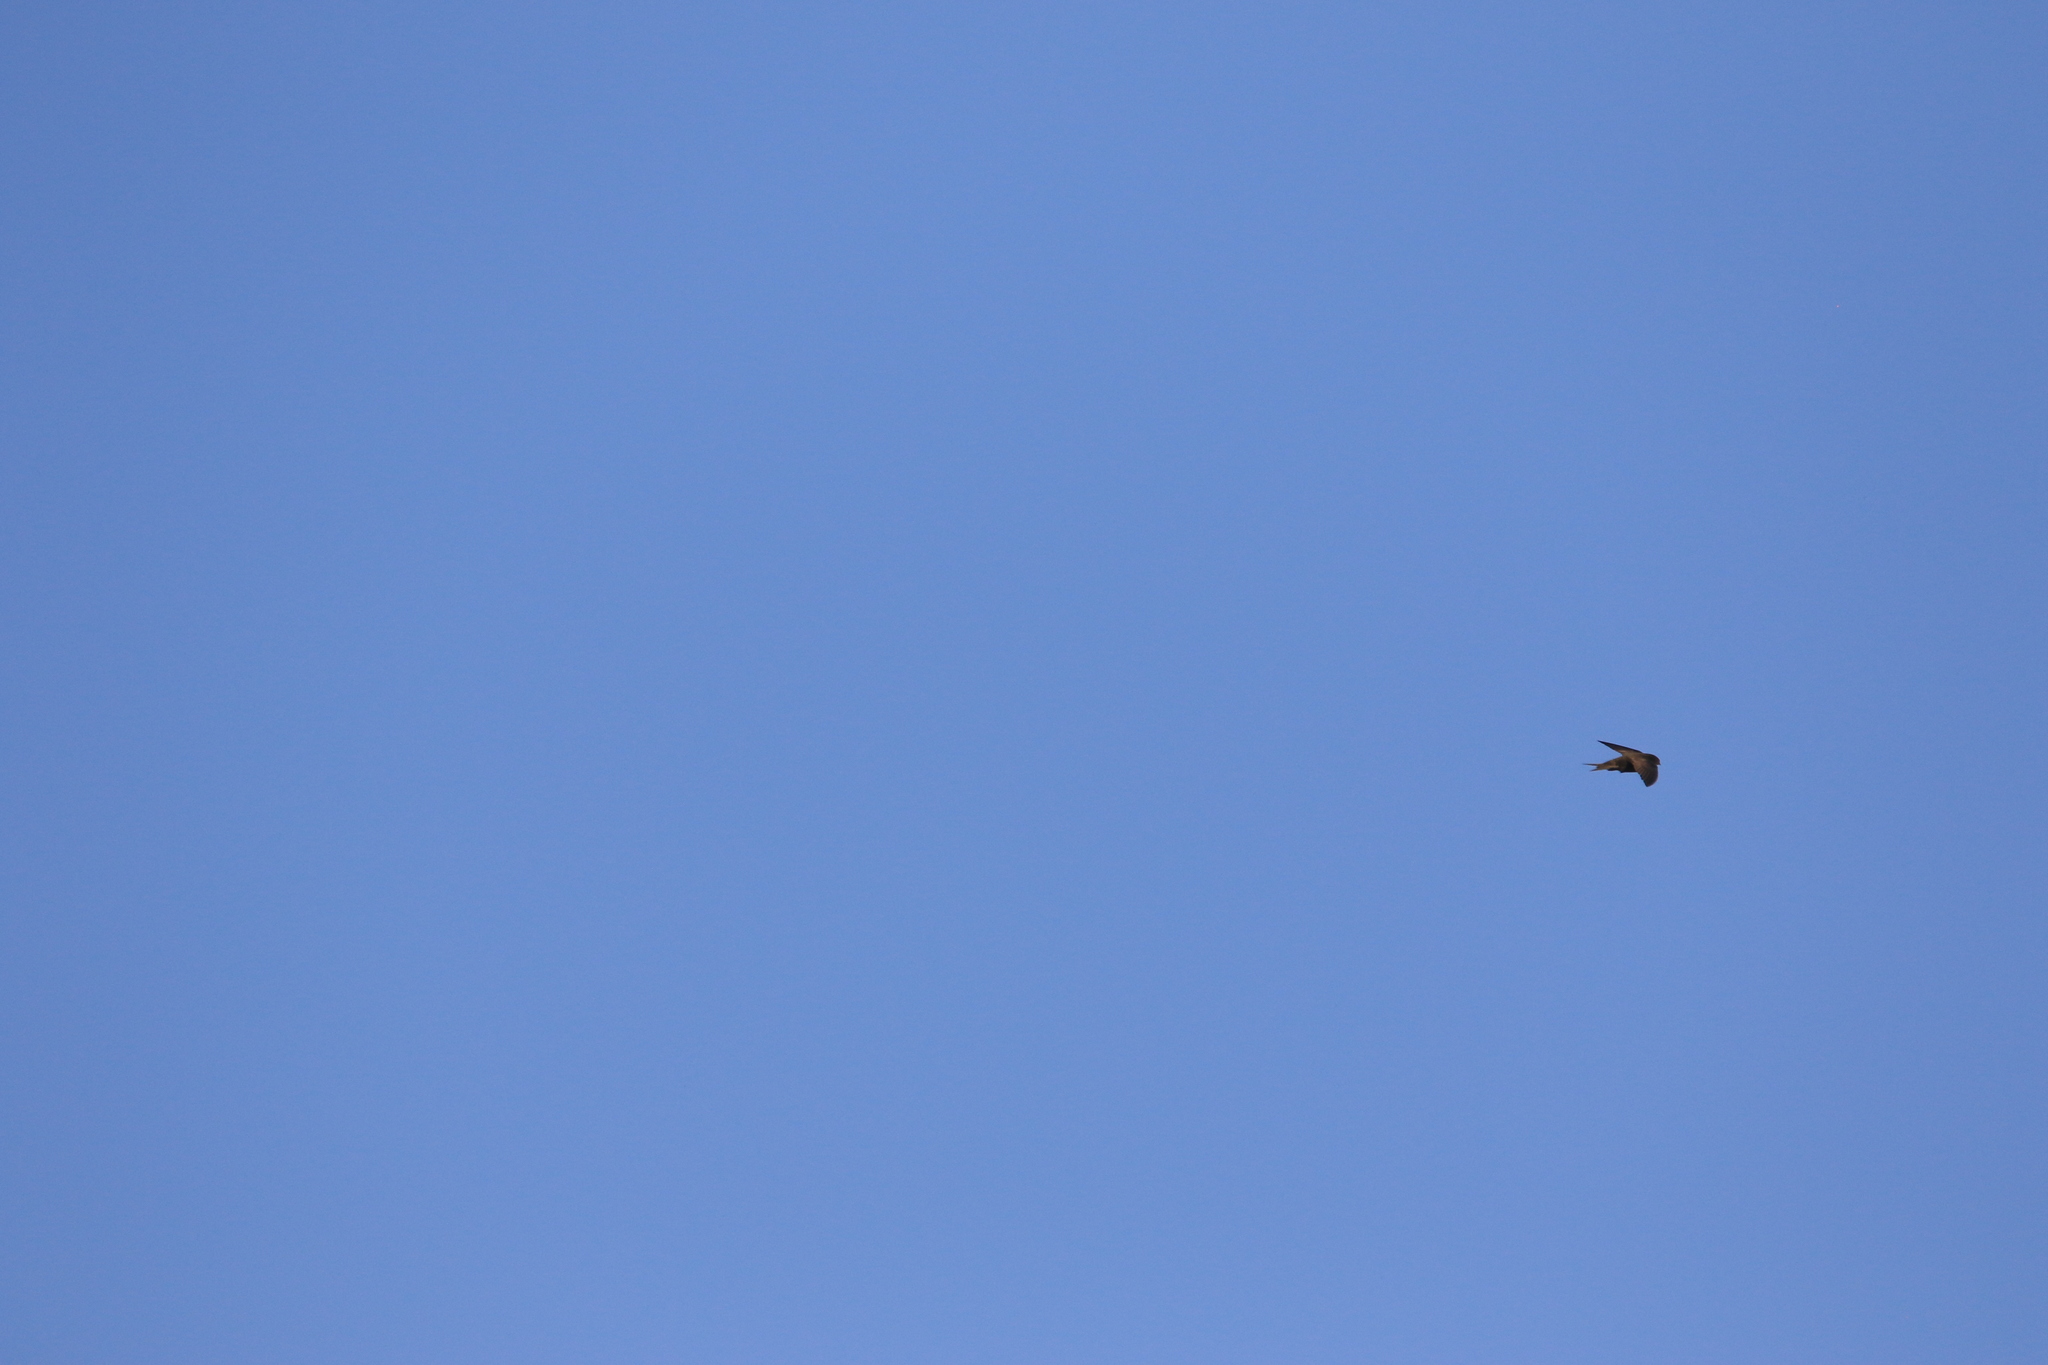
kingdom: Animalia
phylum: Chordata
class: Aves
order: Apodiformes
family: Apodidae
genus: Apus
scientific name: Apus apus
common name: Common swift
